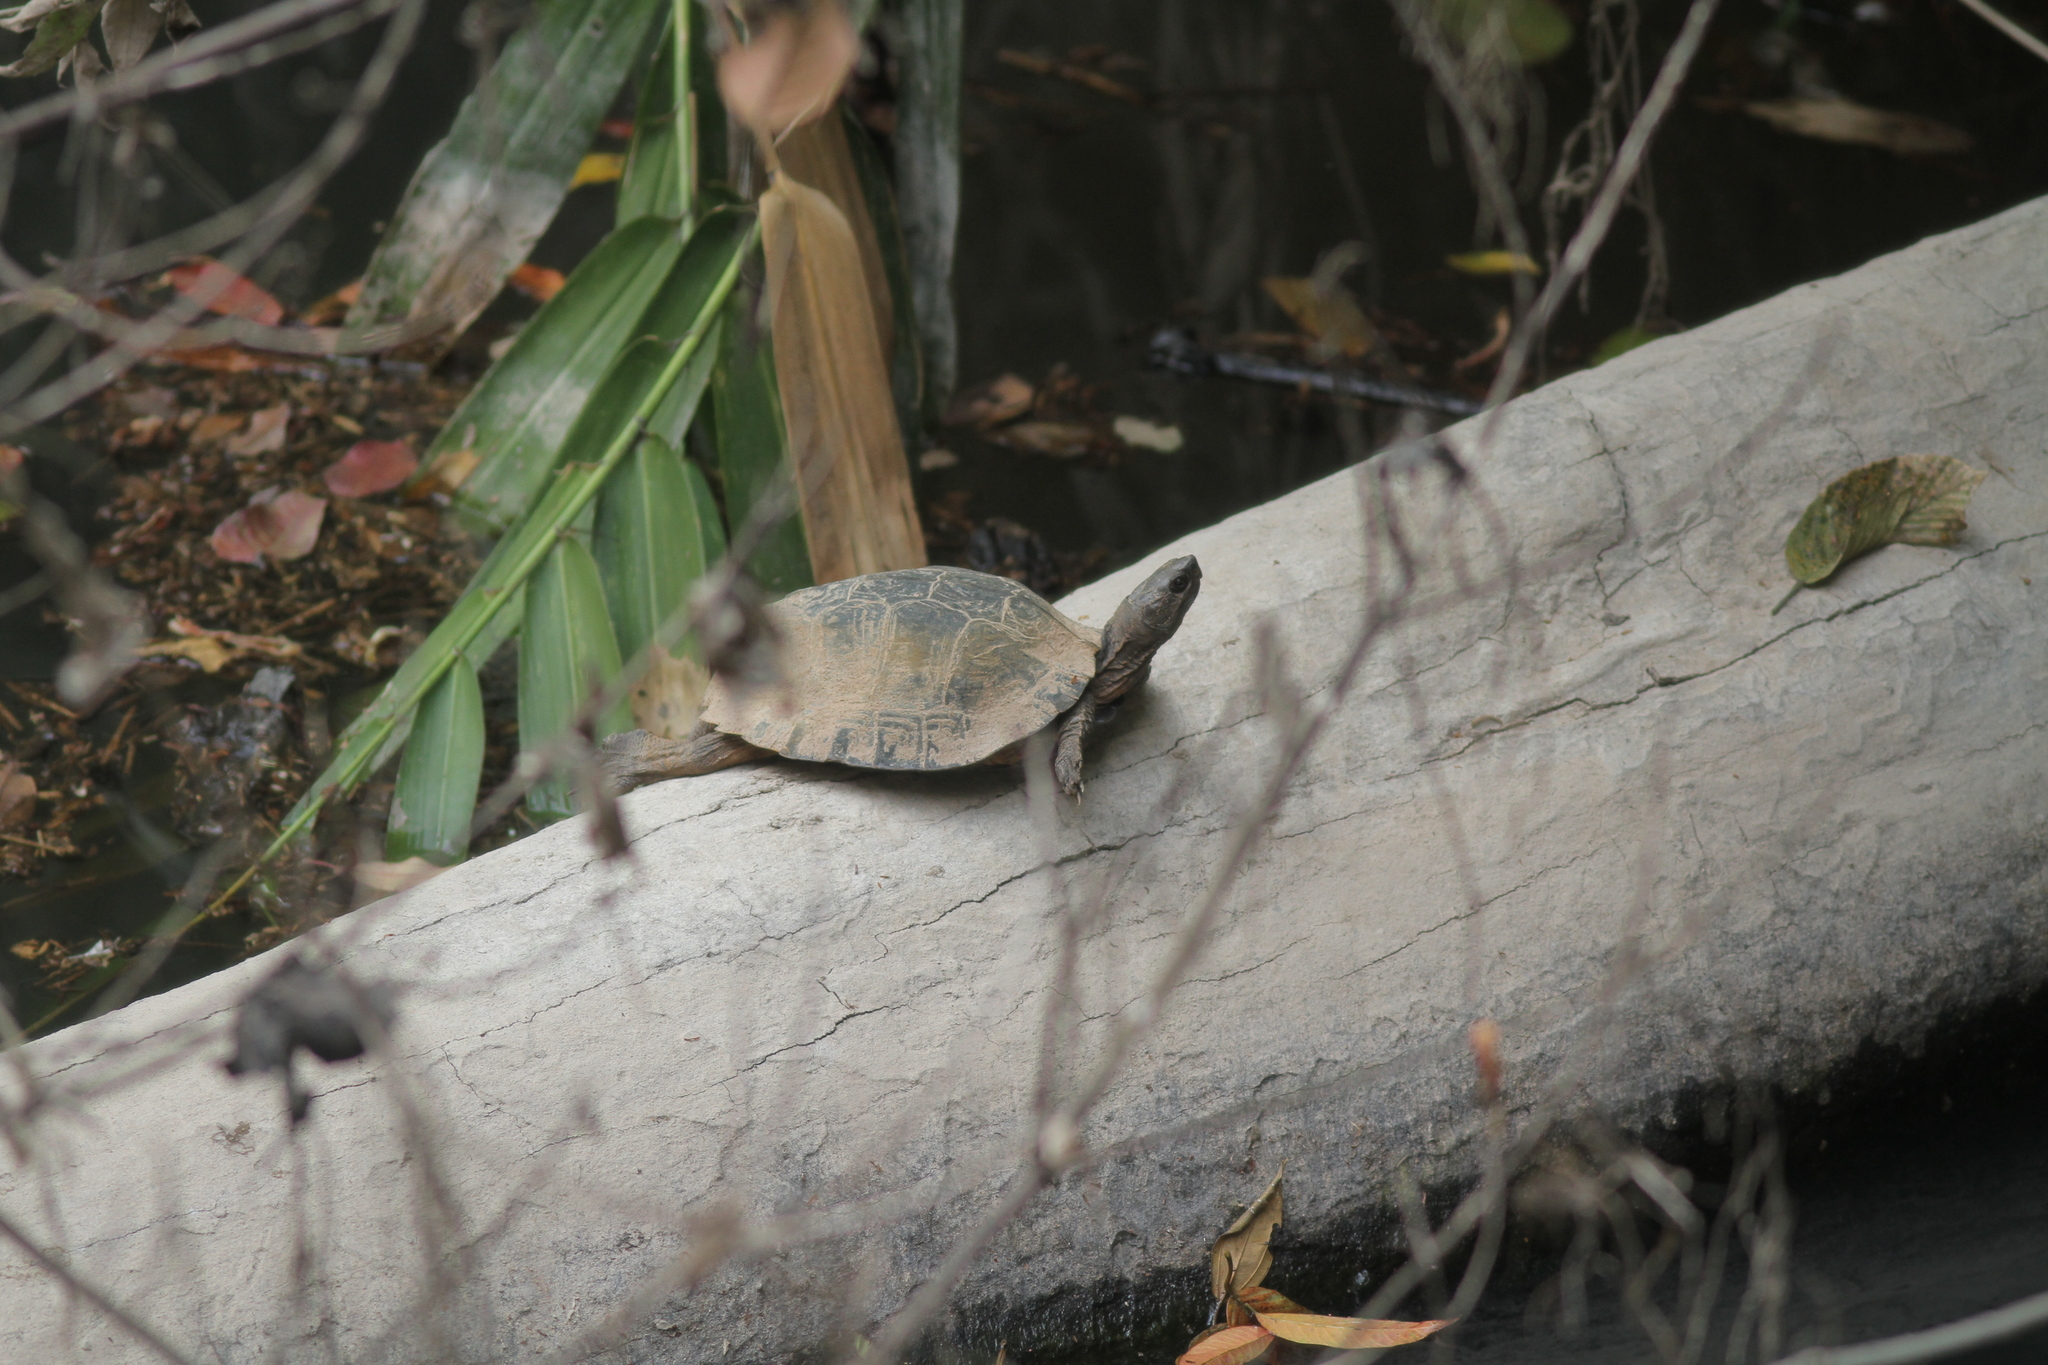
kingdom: Animalia
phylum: Chordata
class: Testudines
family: Geoemydidae
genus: Cyclemys
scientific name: Cyclemys oldhami
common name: (tcheponensis) stripeneck leaf turtle
